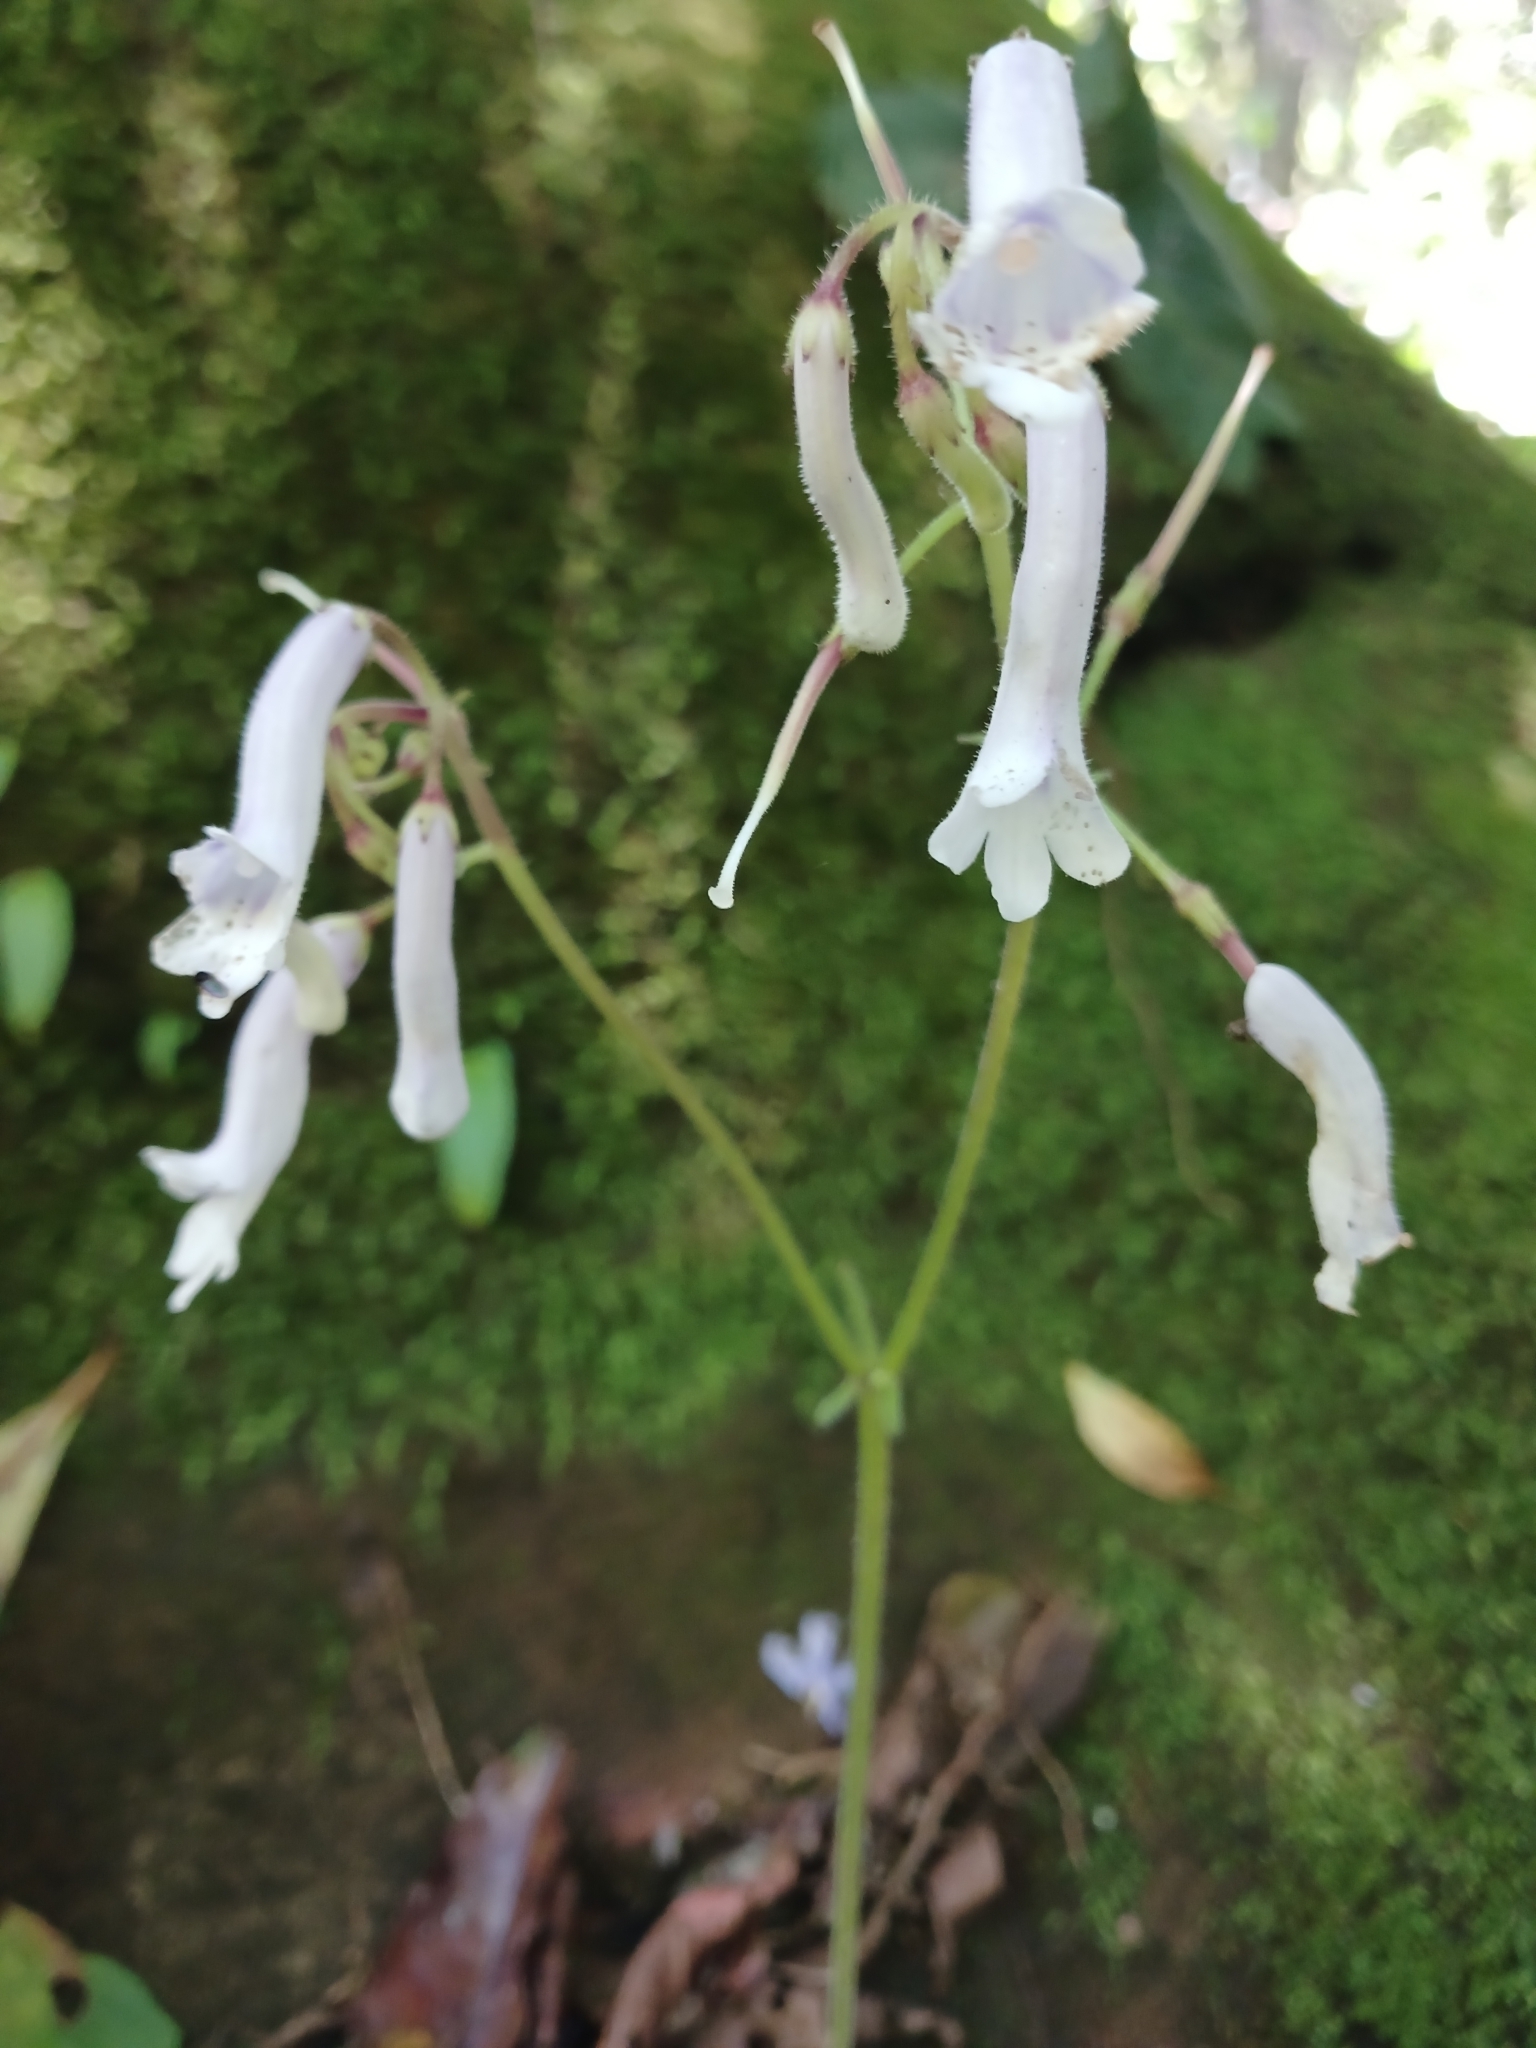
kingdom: Plantae
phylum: Tracheophyta
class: Magnoliopsida
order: Lamiales
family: Gesneriaceae
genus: Streptocarpus
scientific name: Streptocarpus grandis
